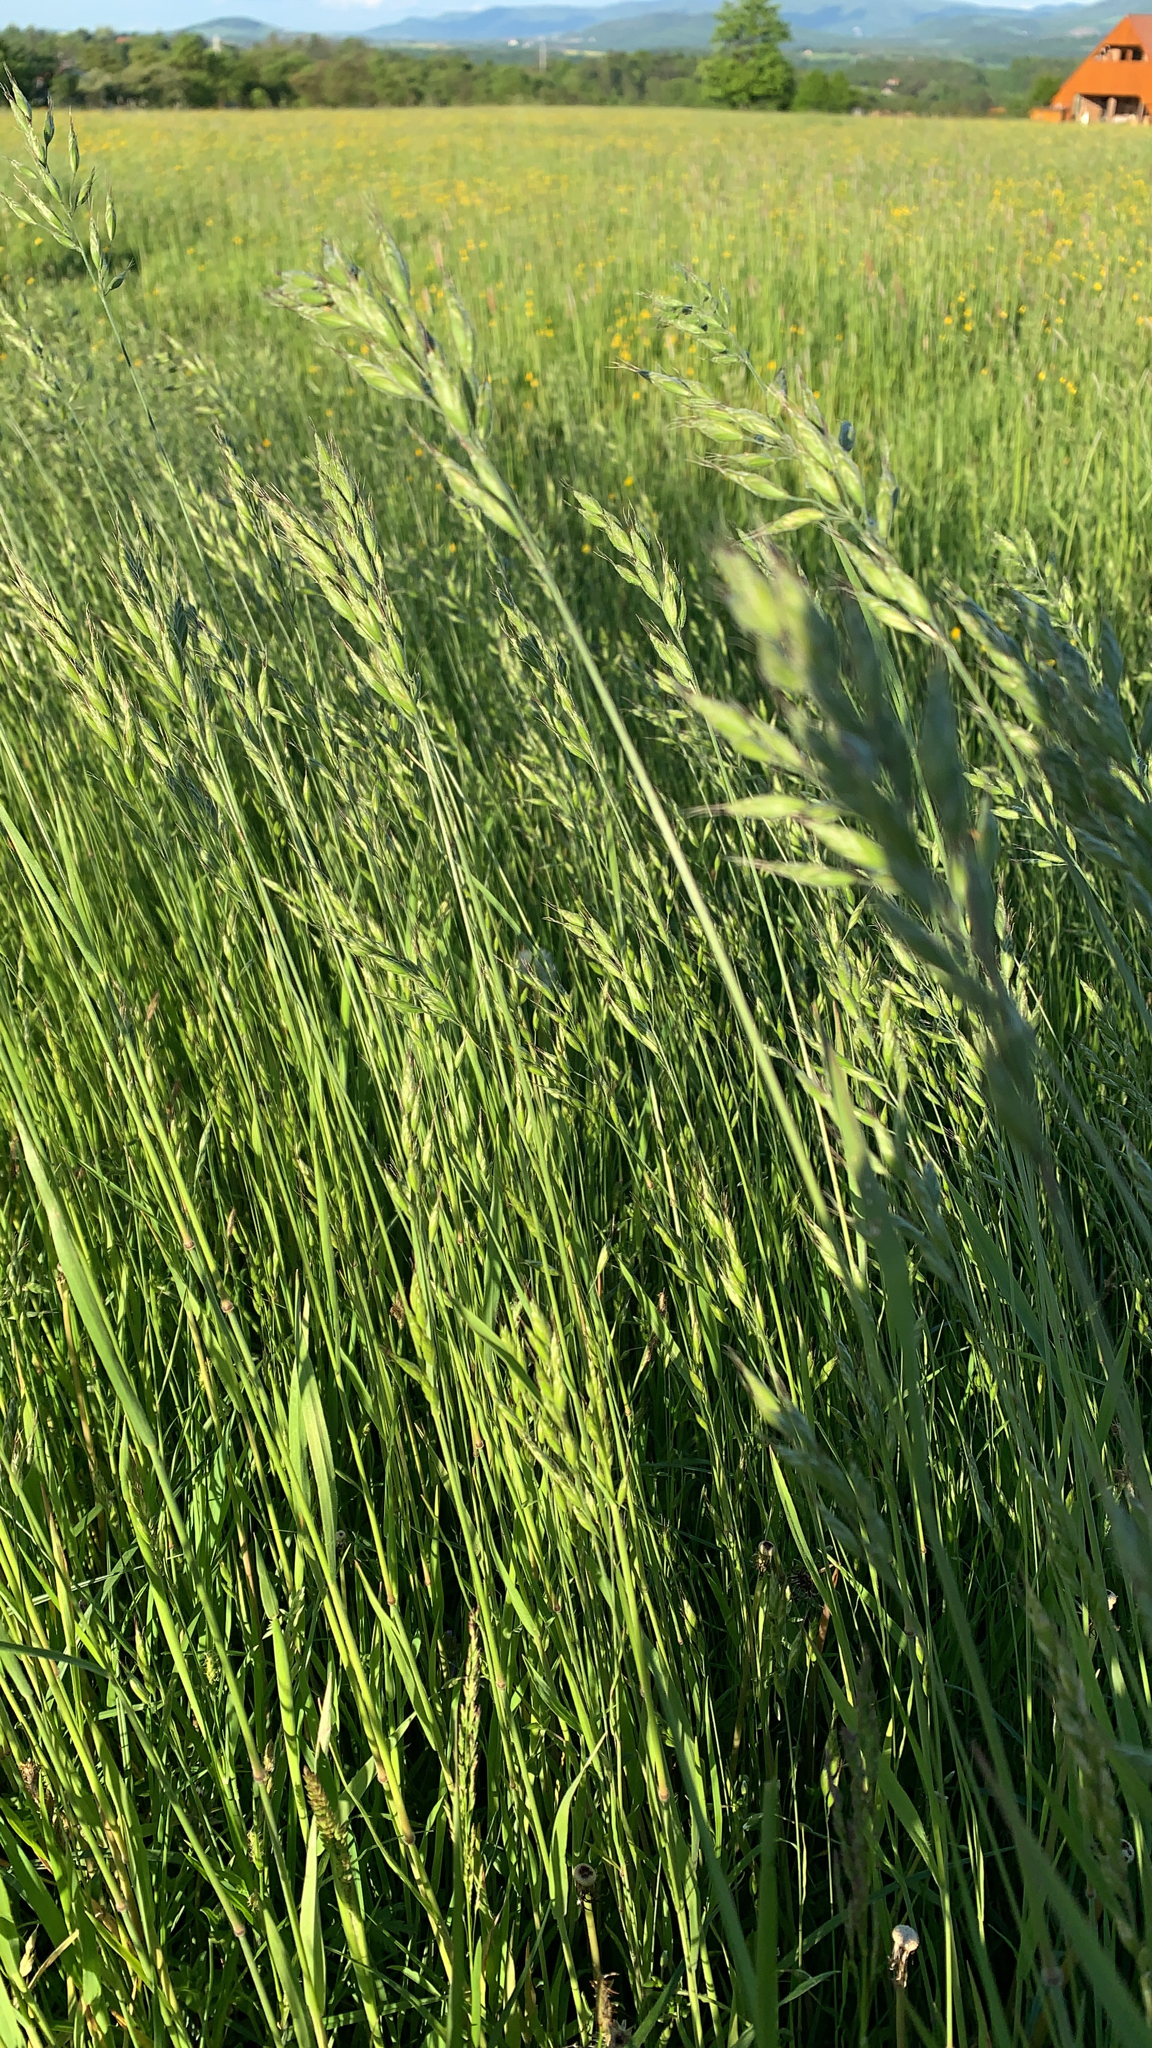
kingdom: Plantae
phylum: Tracheophyta
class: Liliopsida
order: Poales
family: Poaceae
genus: Bromus
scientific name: Bromus hordeaceus
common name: Soft brome
